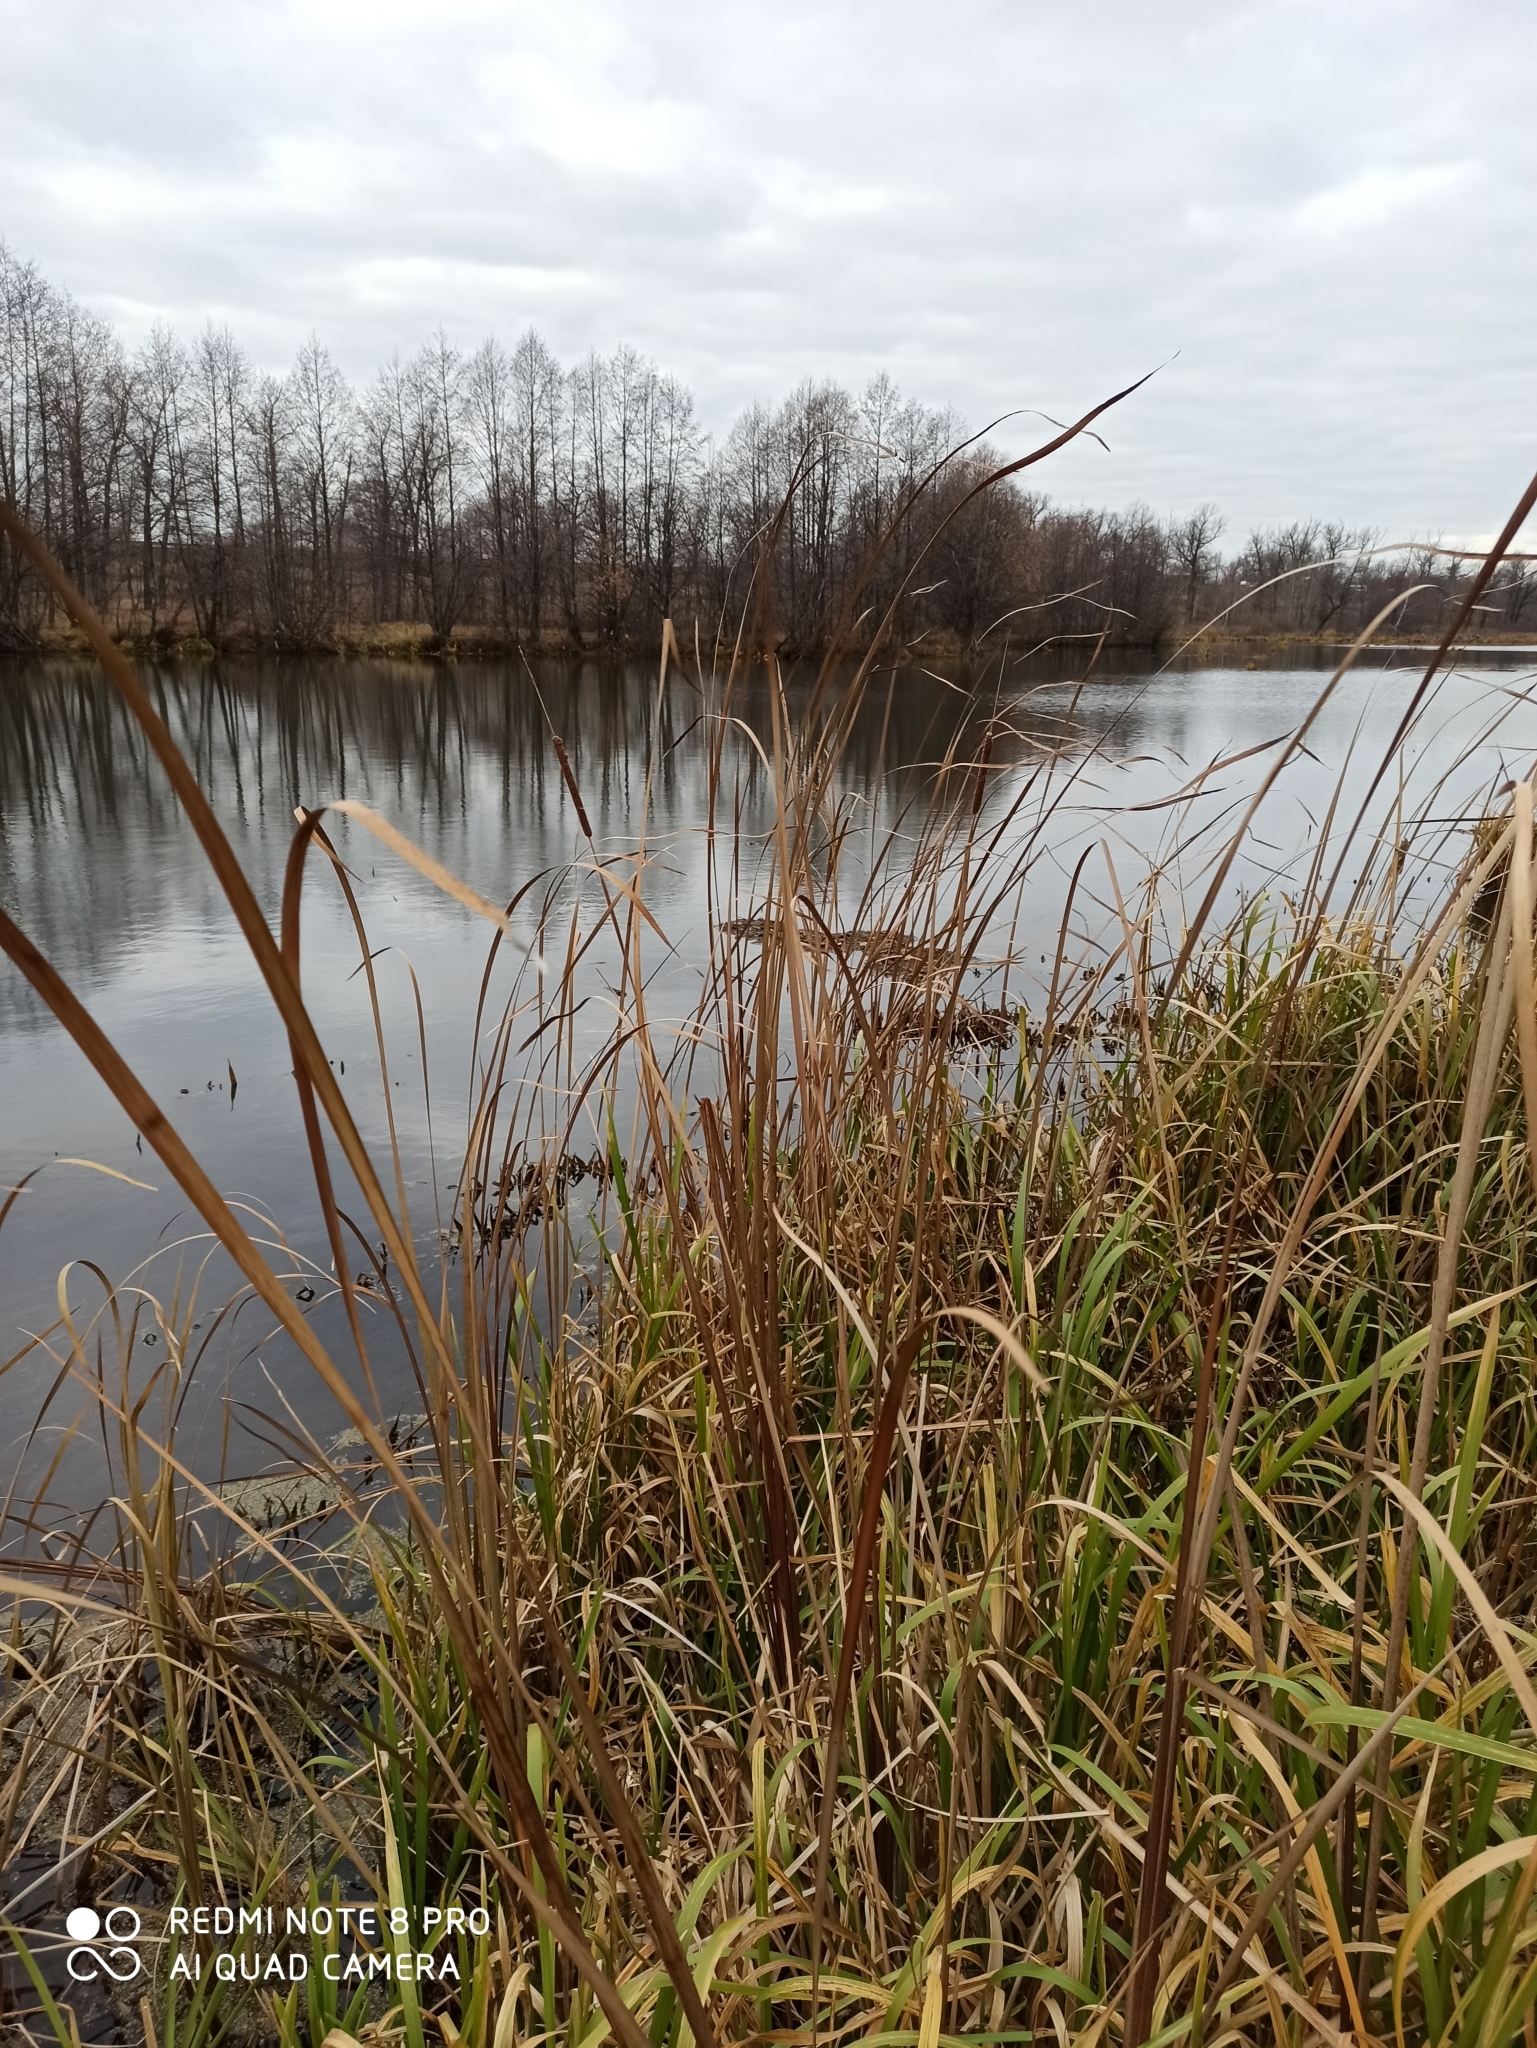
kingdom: Plantae
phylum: Tracheophyta
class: Liliopsida
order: Poales
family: Typhaceae
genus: Typha
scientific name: Typha angustifolia
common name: Lesser bulrush
